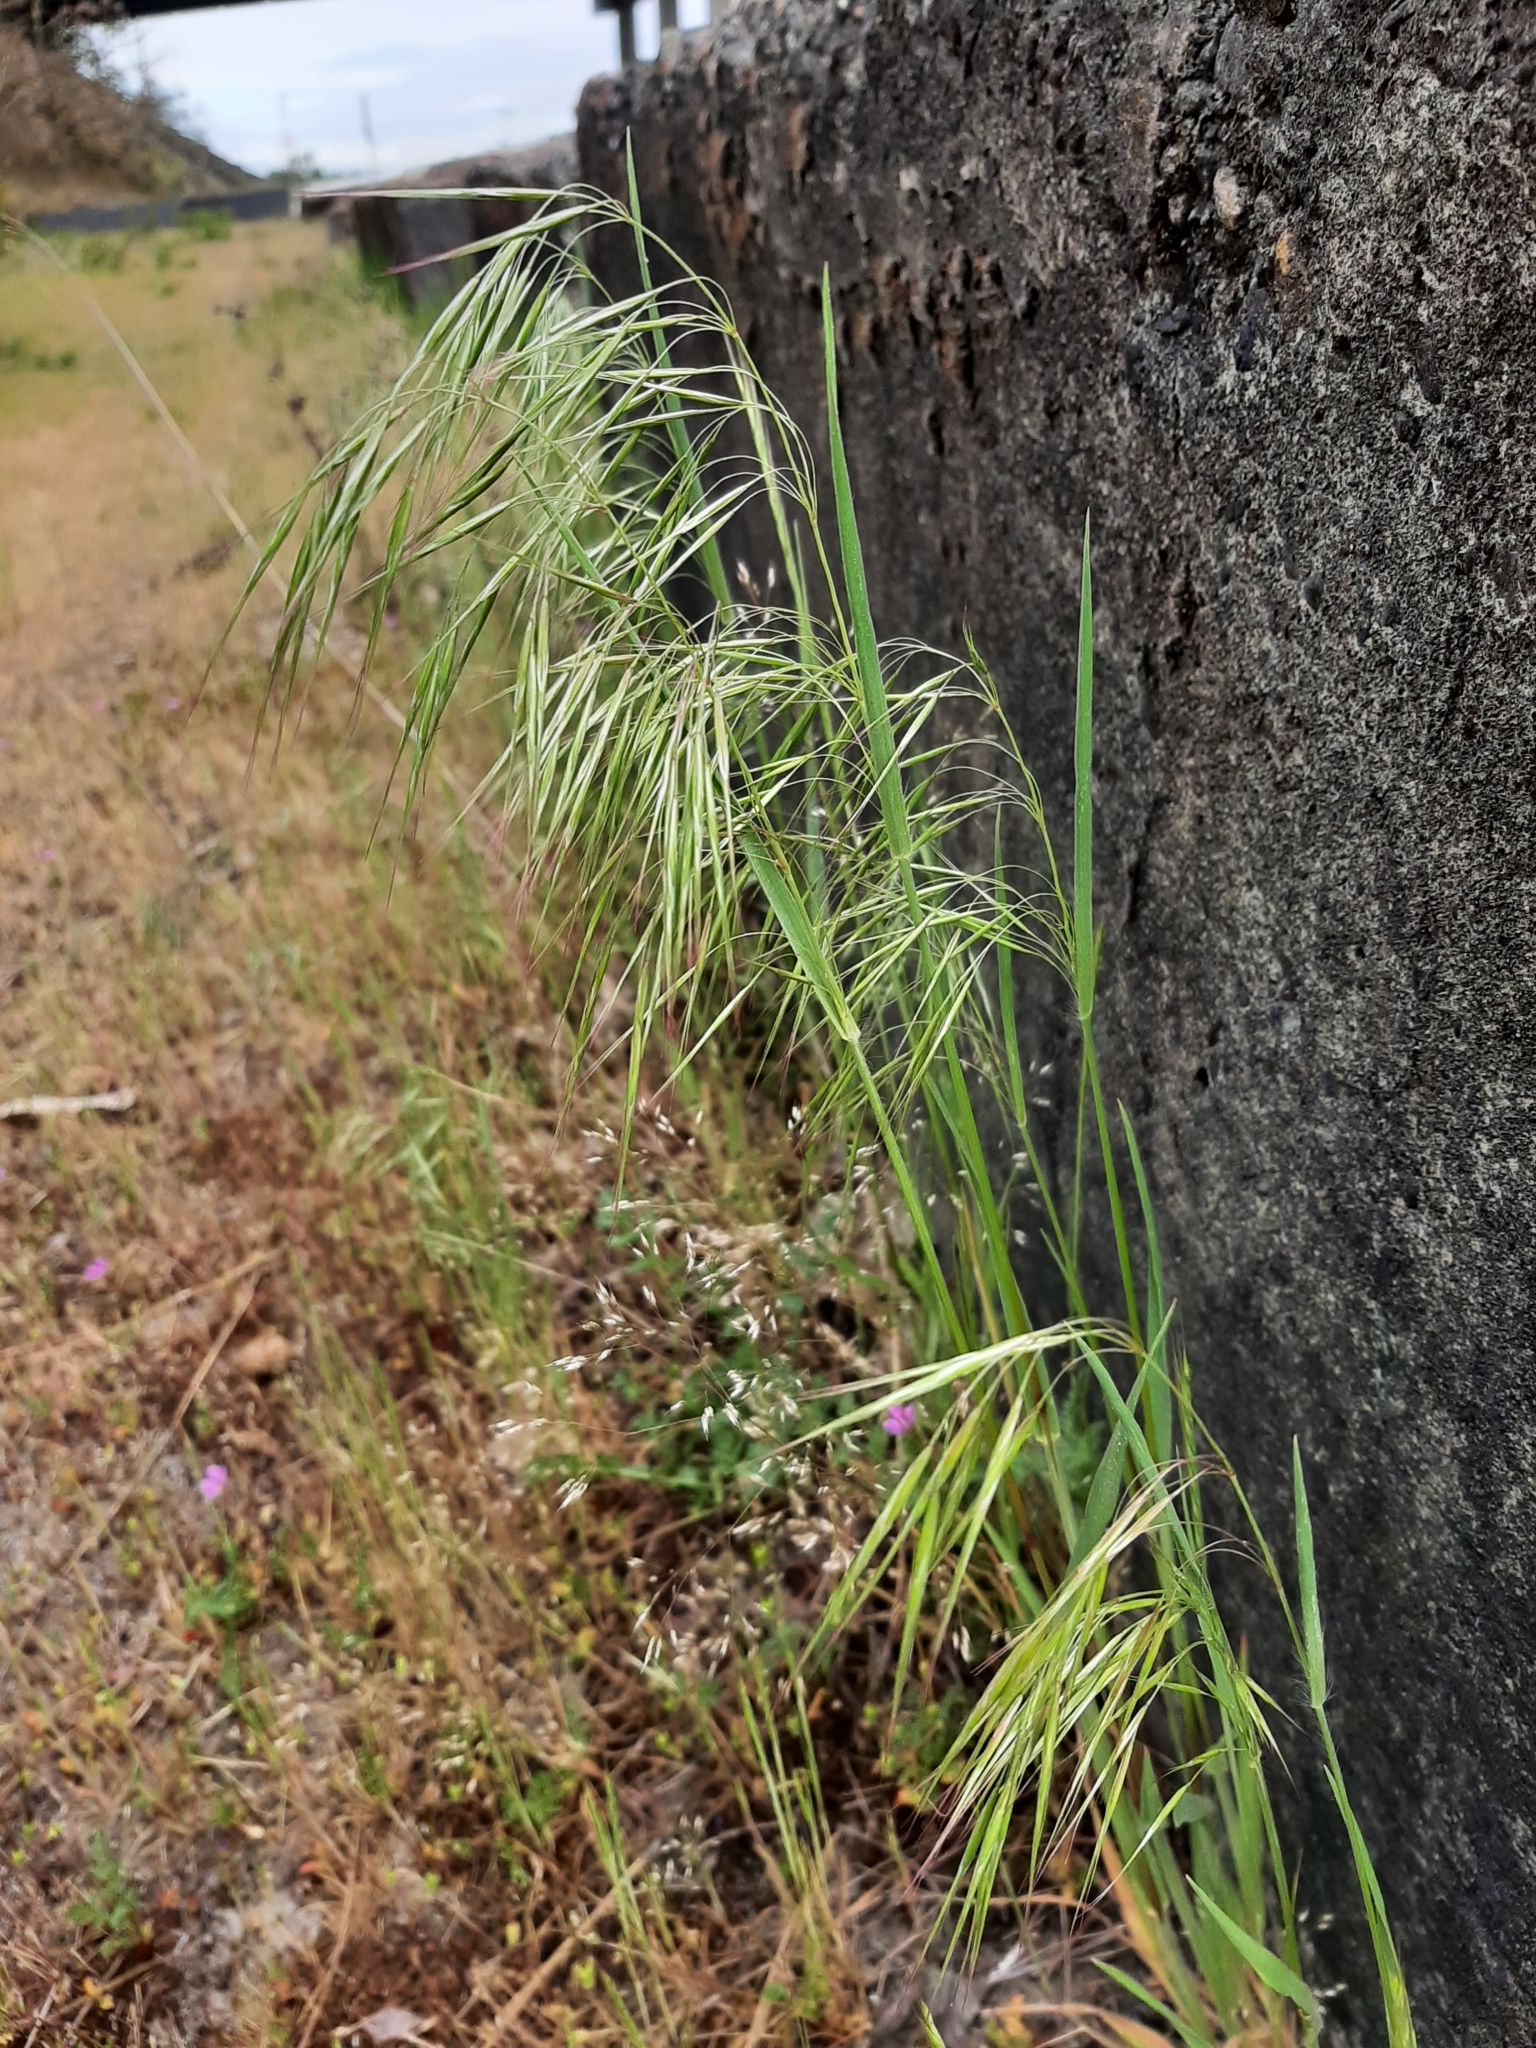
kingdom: Plantae
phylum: Tracheophyta
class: Liliopsida
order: Poales
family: Poaceae
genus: Bromus
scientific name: Bromus tectorum
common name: Cheatgrass
